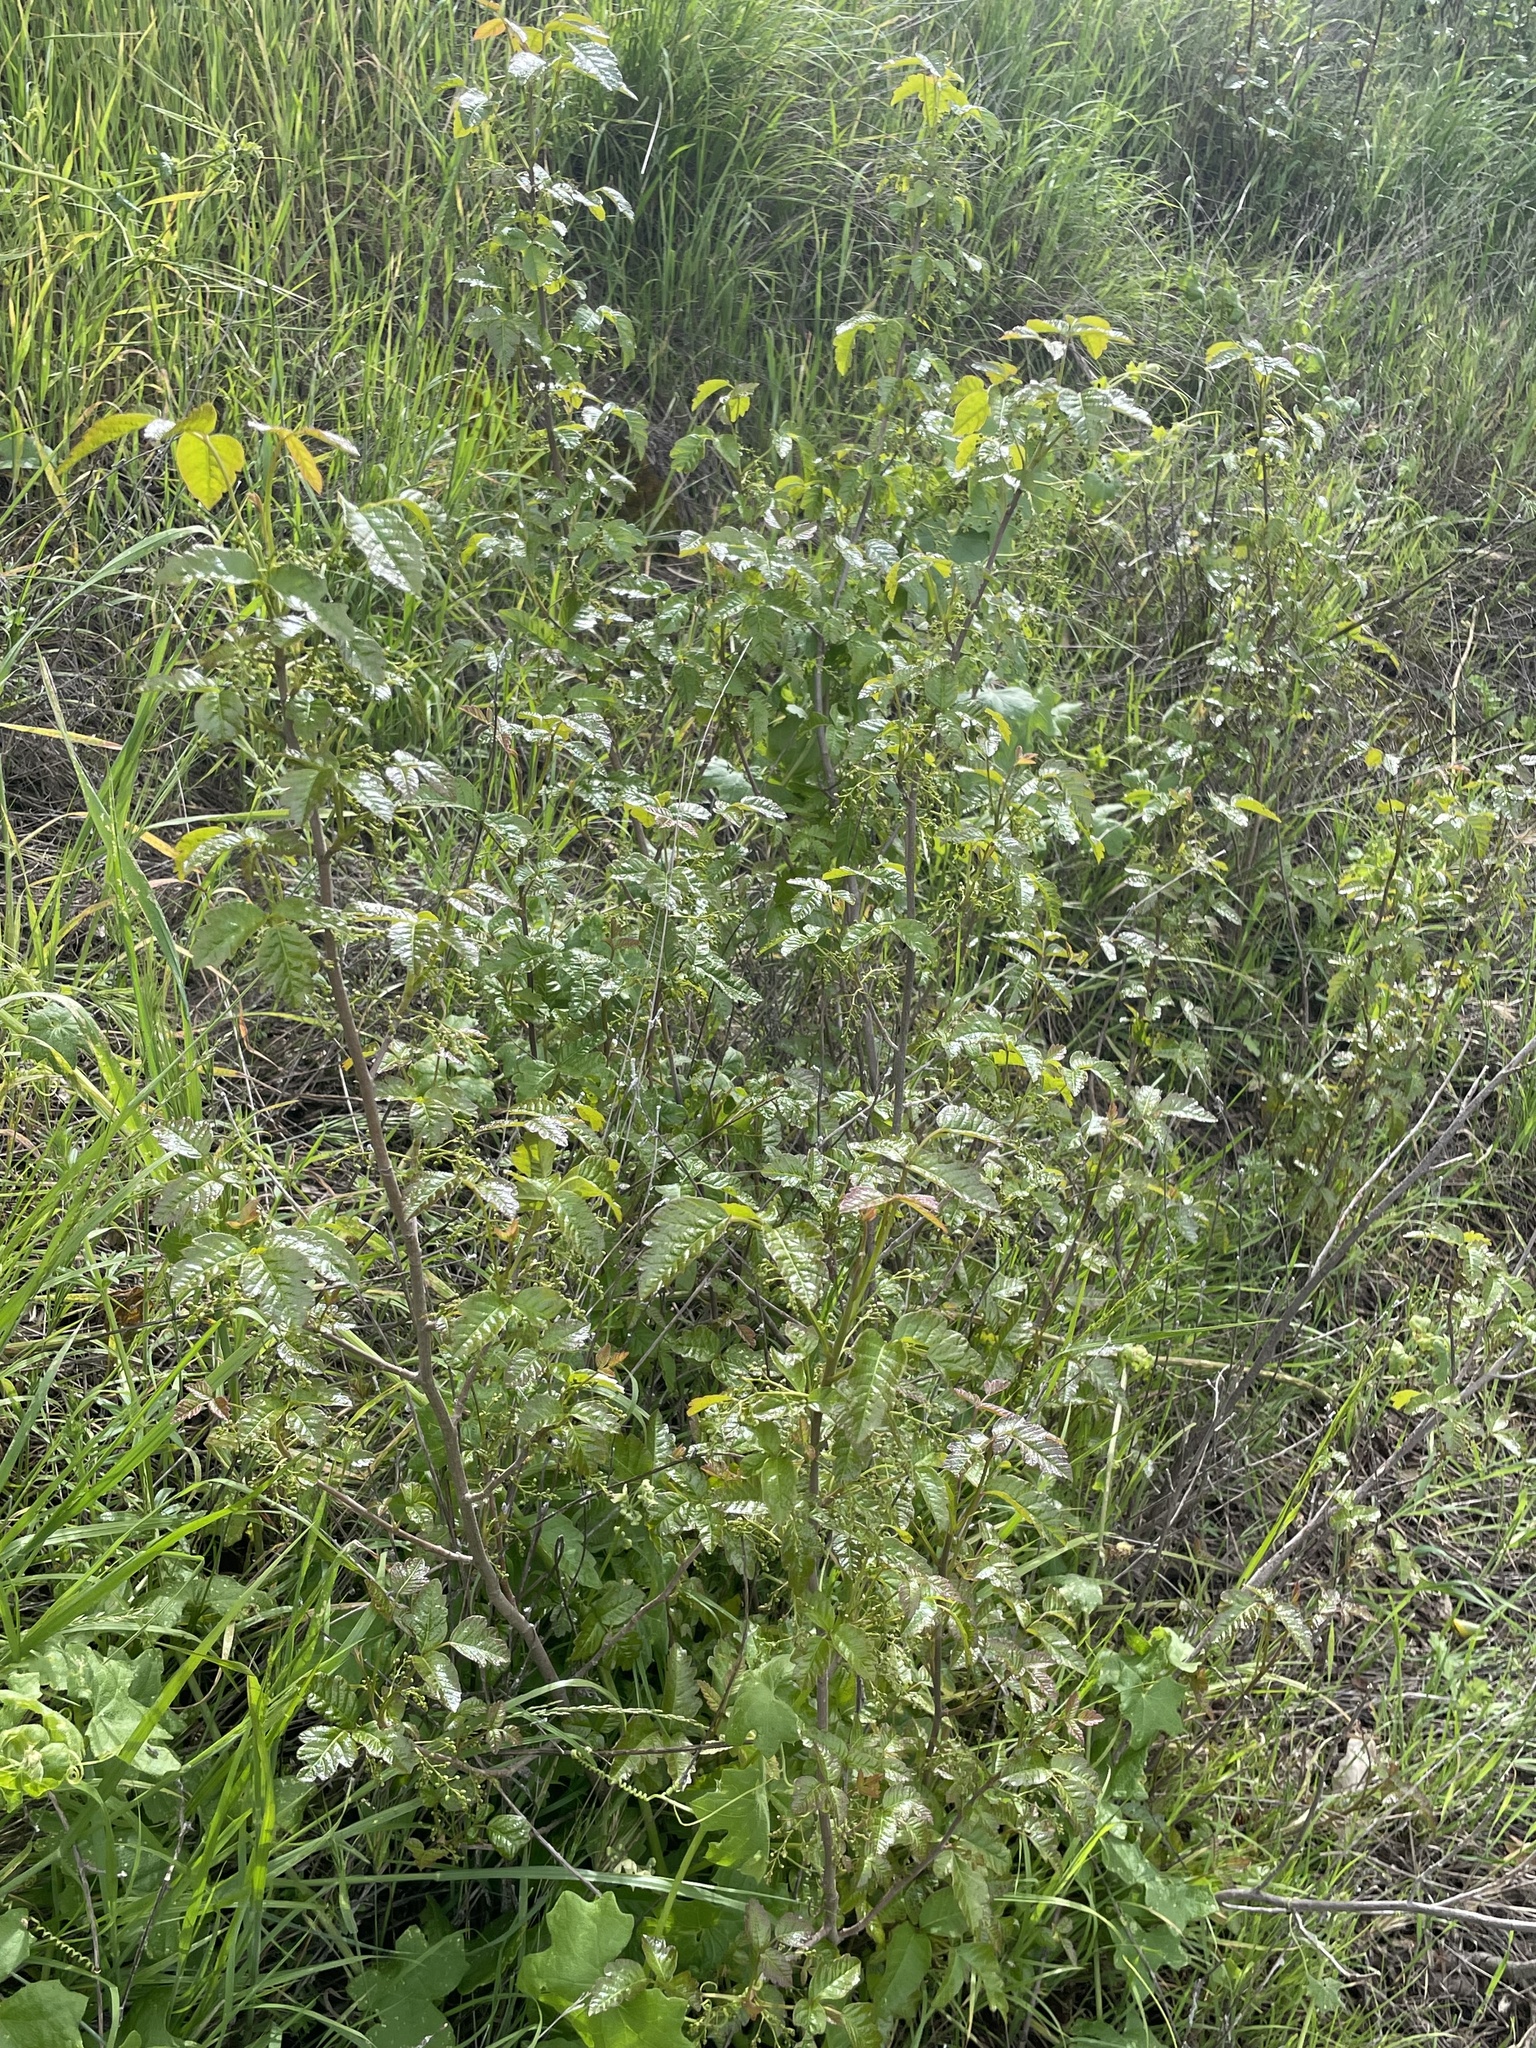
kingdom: Plantae
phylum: Tracheophyta
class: Magnoliopsida
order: Sapindales
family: Anacardiaceae
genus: Toxicodendron
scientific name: Toxicodendron diversilobum
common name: Pacific poison-oak
